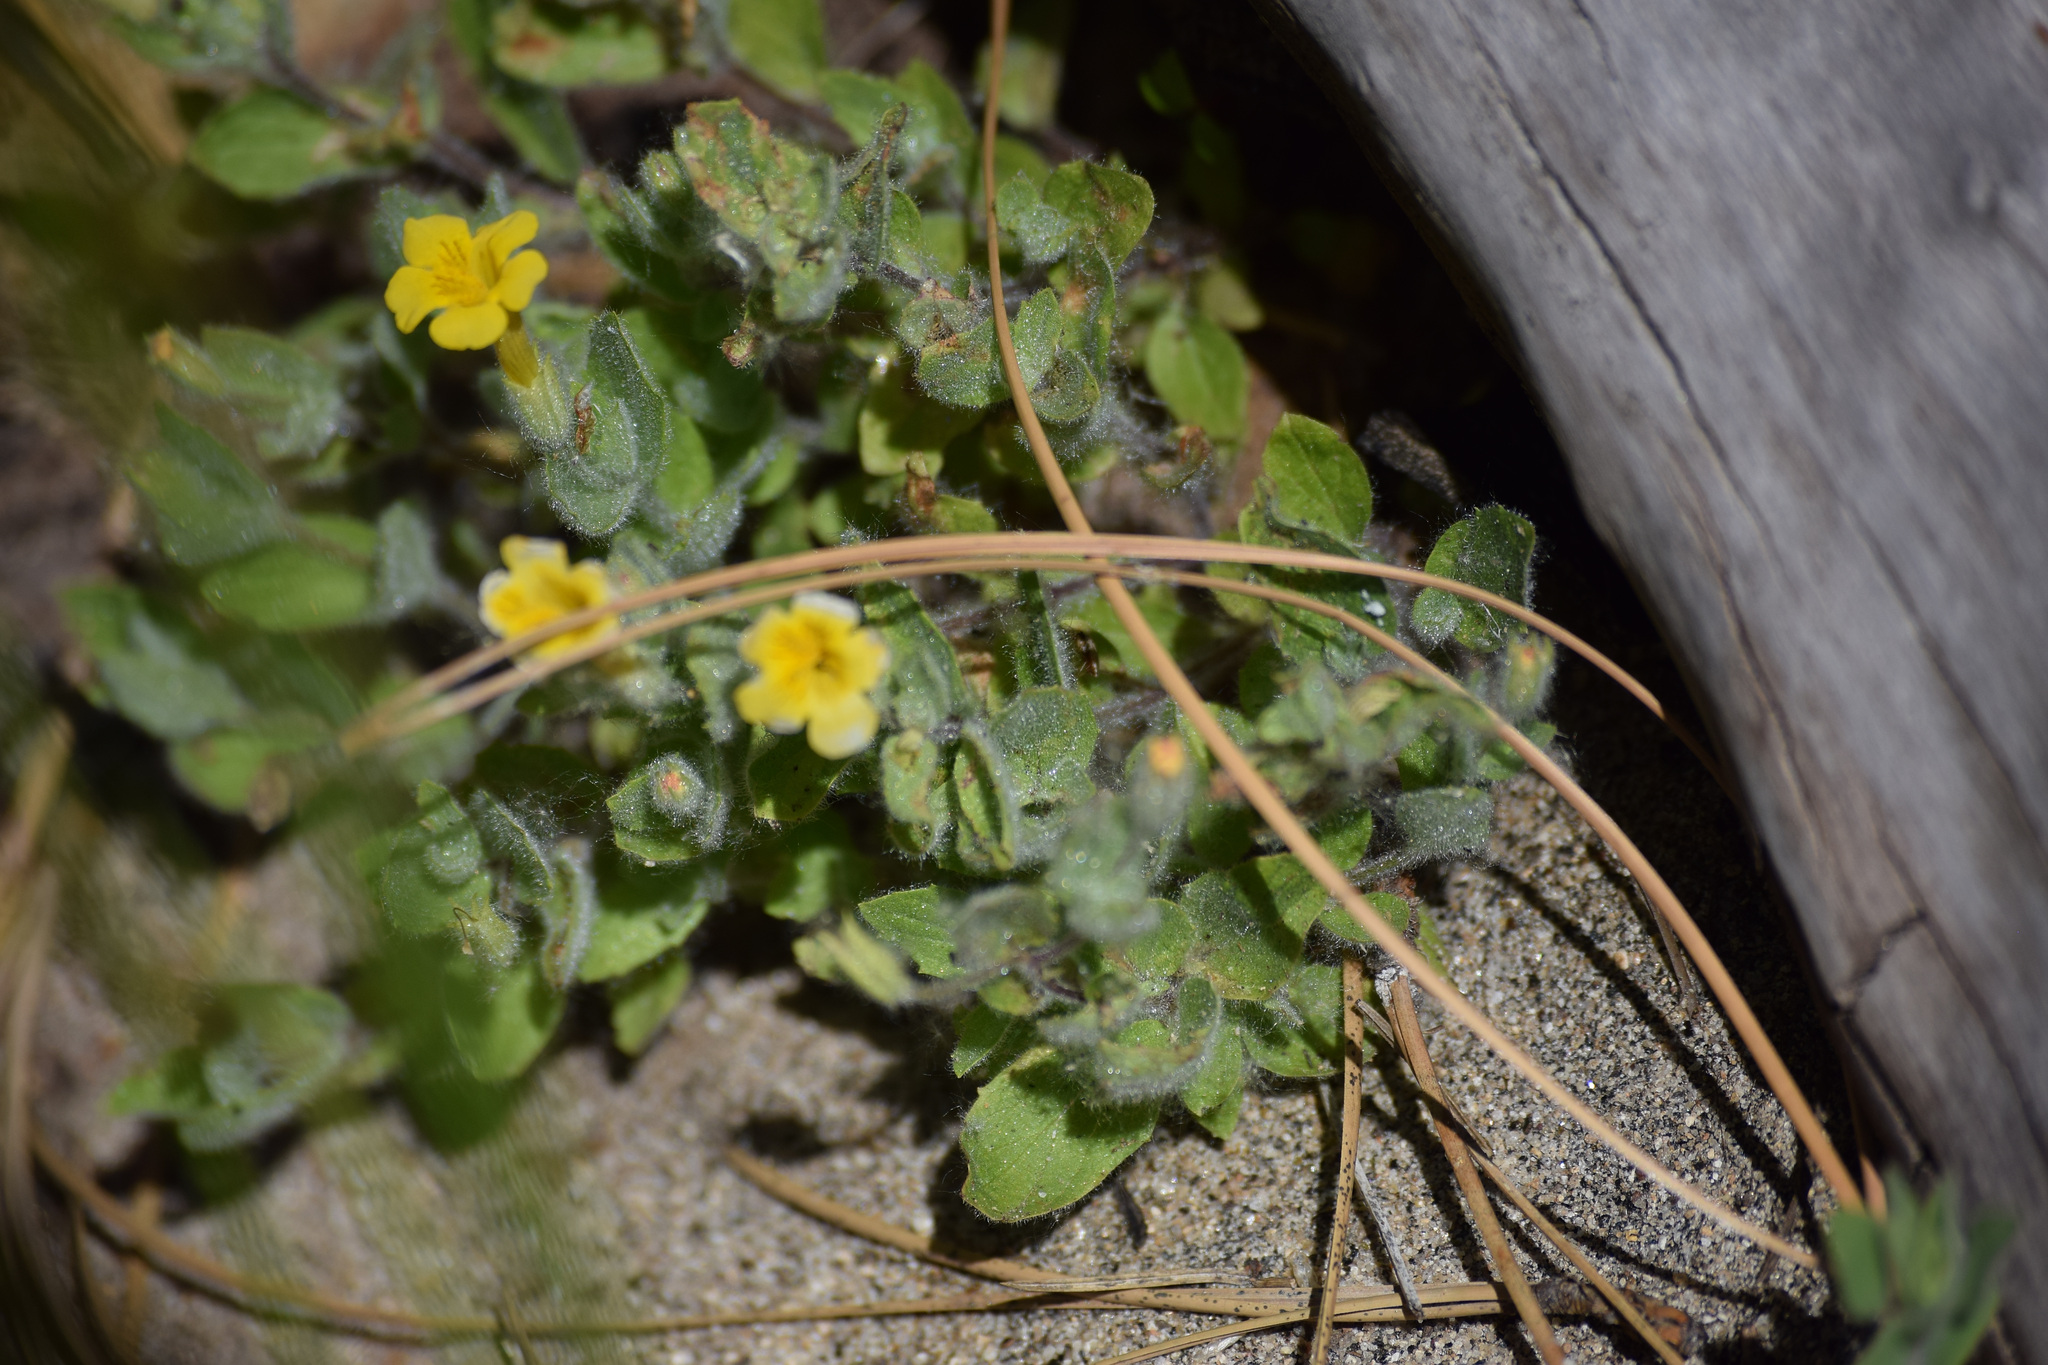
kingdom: Plantae
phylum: Tracheophyta
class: Magnoliopsida
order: Lamiales
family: Phrymaceae
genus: Erythranthe
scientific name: Erythranthe moschata
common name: Muskflower
